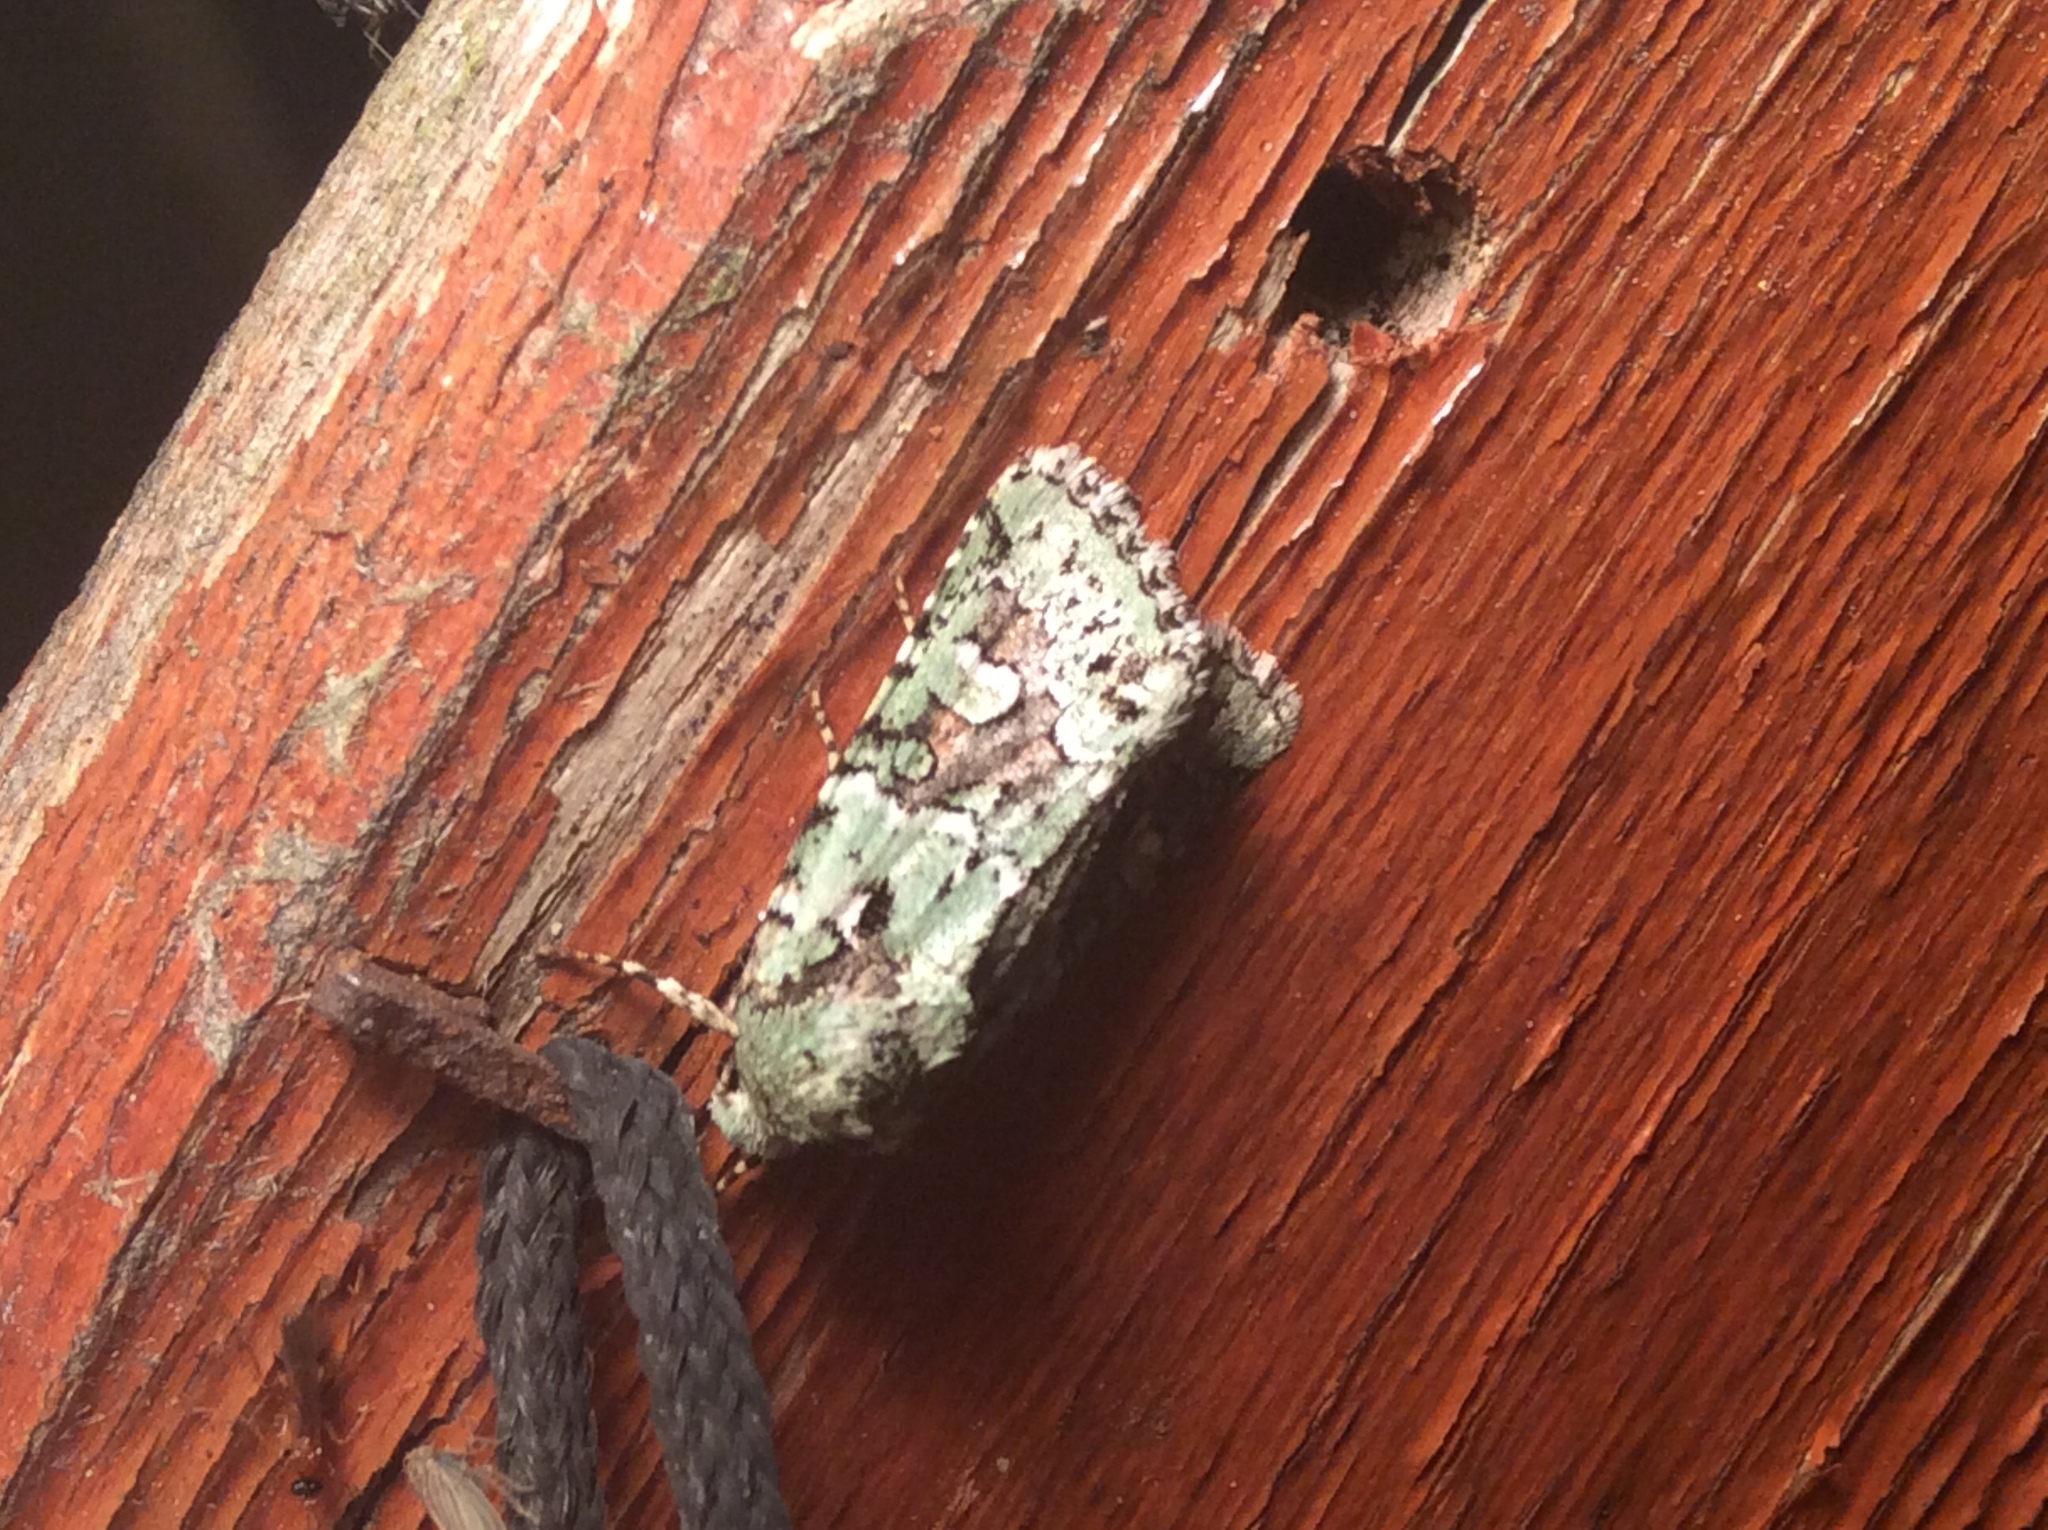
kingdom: Animalia
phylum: Arthropoda
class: Insecta
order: Lepidoptera
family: Noctuidae
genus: Lacinipolia
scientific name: Lacinipolia laudabilis
